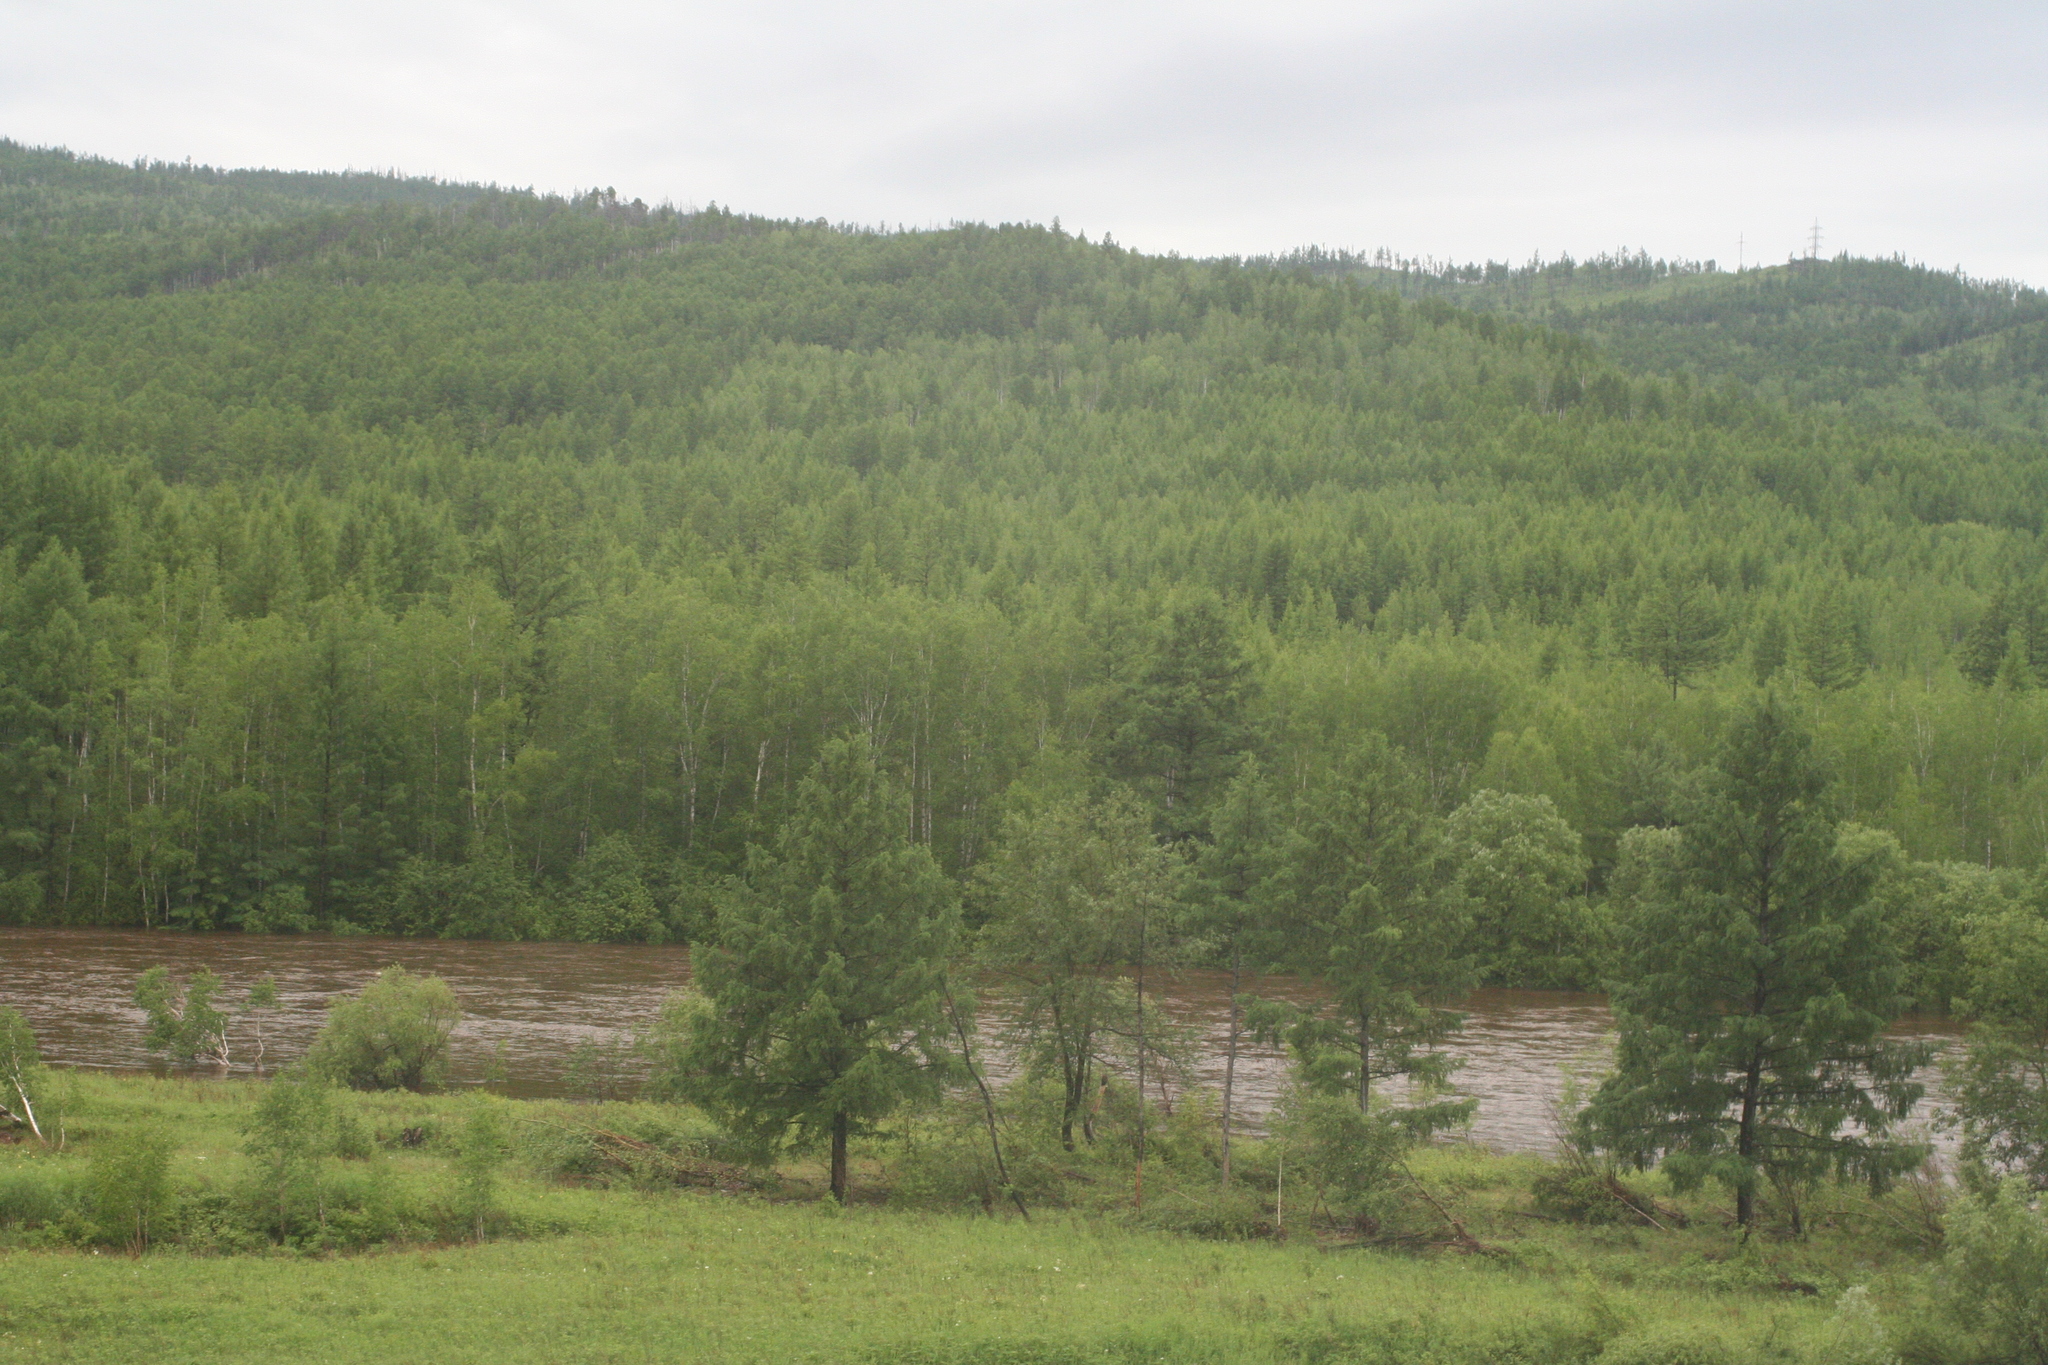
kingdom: Plantae
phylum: Tracheophyta
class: Pinopsida
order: Pinales
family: Pinaceae
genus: Larix
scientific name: Larix gmelinii
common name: Dahurian larch
